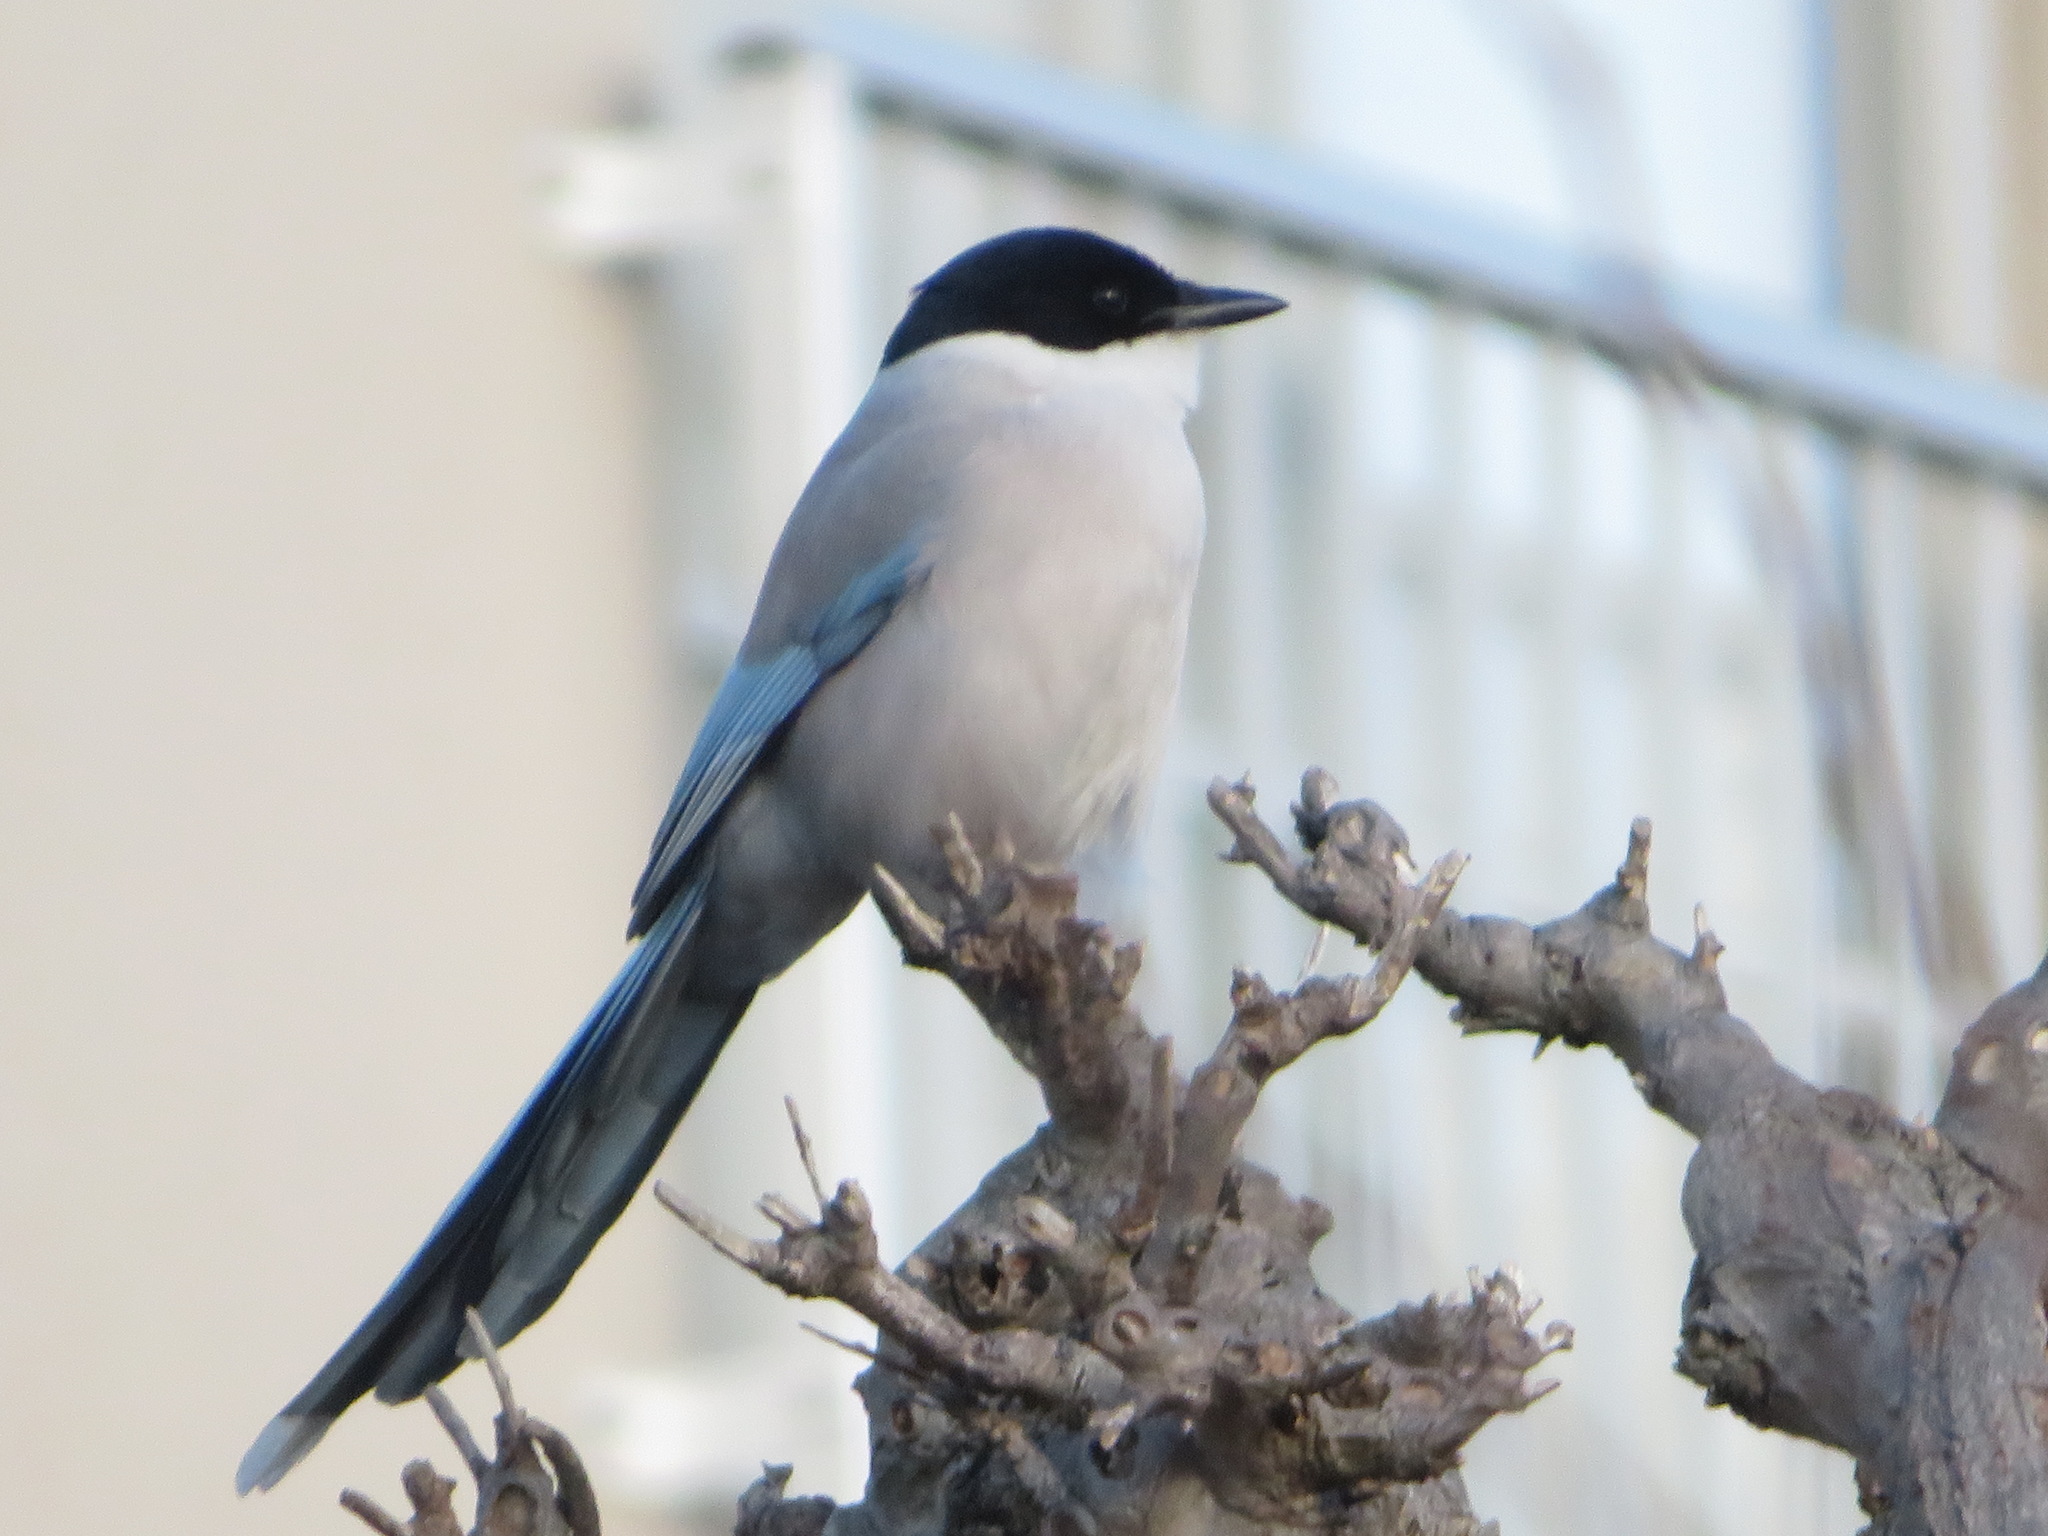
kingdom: Animalia
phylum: Chordata
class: Aves
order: Passeriformes
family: Corvidae
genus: Cyanopica
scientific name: Cyanopica cyanus
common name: Azure-winged magpie
